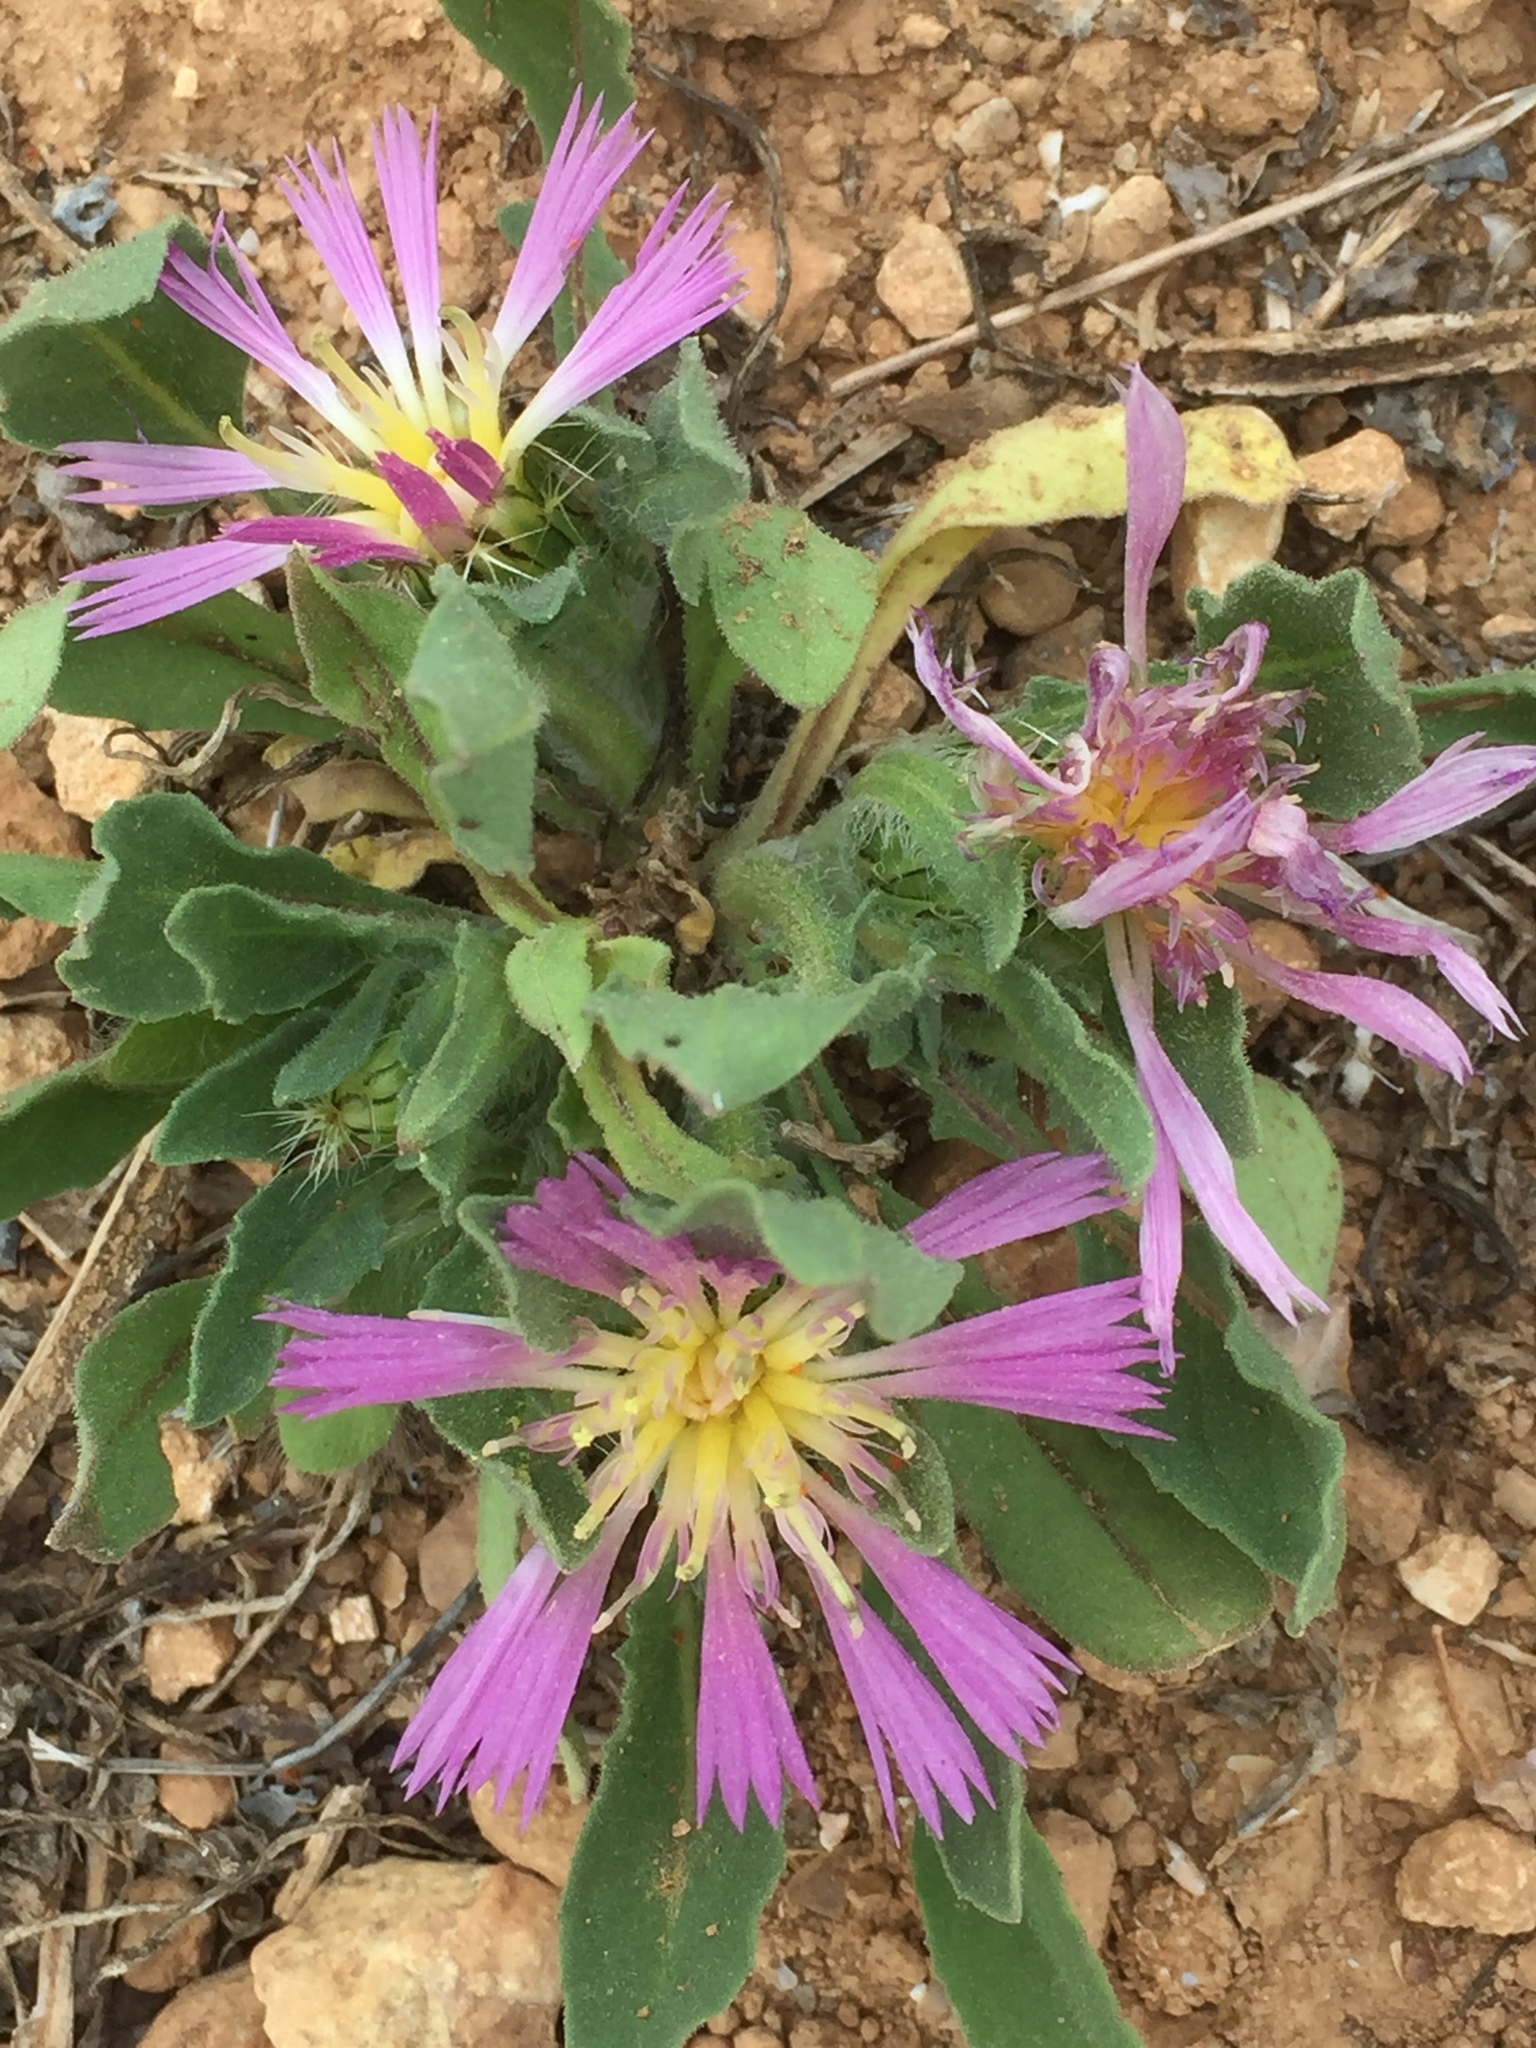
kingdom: Plantae
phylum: Tracheophyta
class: Magnoliopsida
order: Asterales
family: Asteraceae
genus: Centaurea
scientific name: Centaurea pullata
